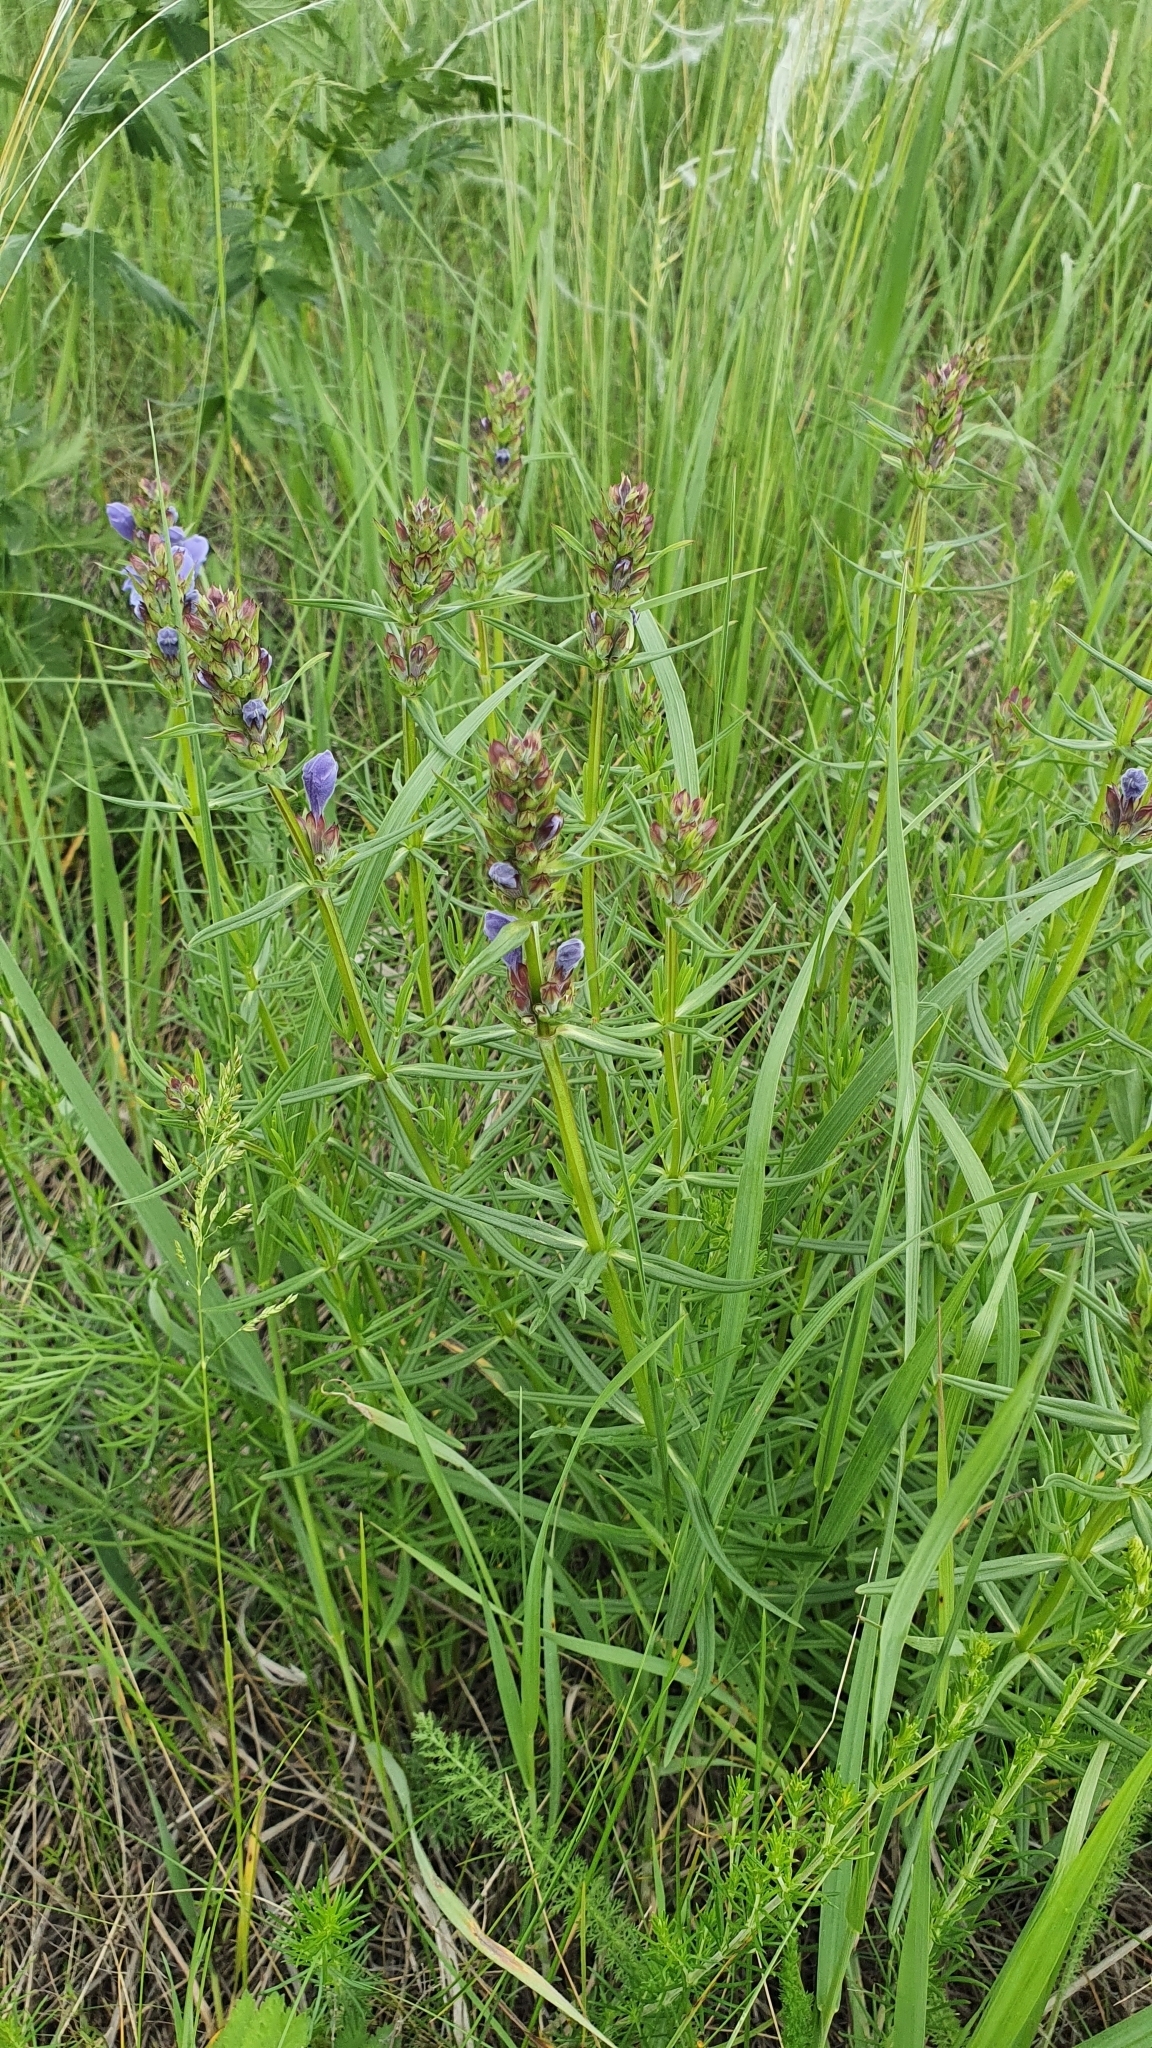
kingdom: Plantae
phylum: Tracheophyta
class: Magnoliopsida
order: Lamiales
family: Lamiaceae
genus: Dracocephalum
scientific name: Dracocephalum ruyschiana
